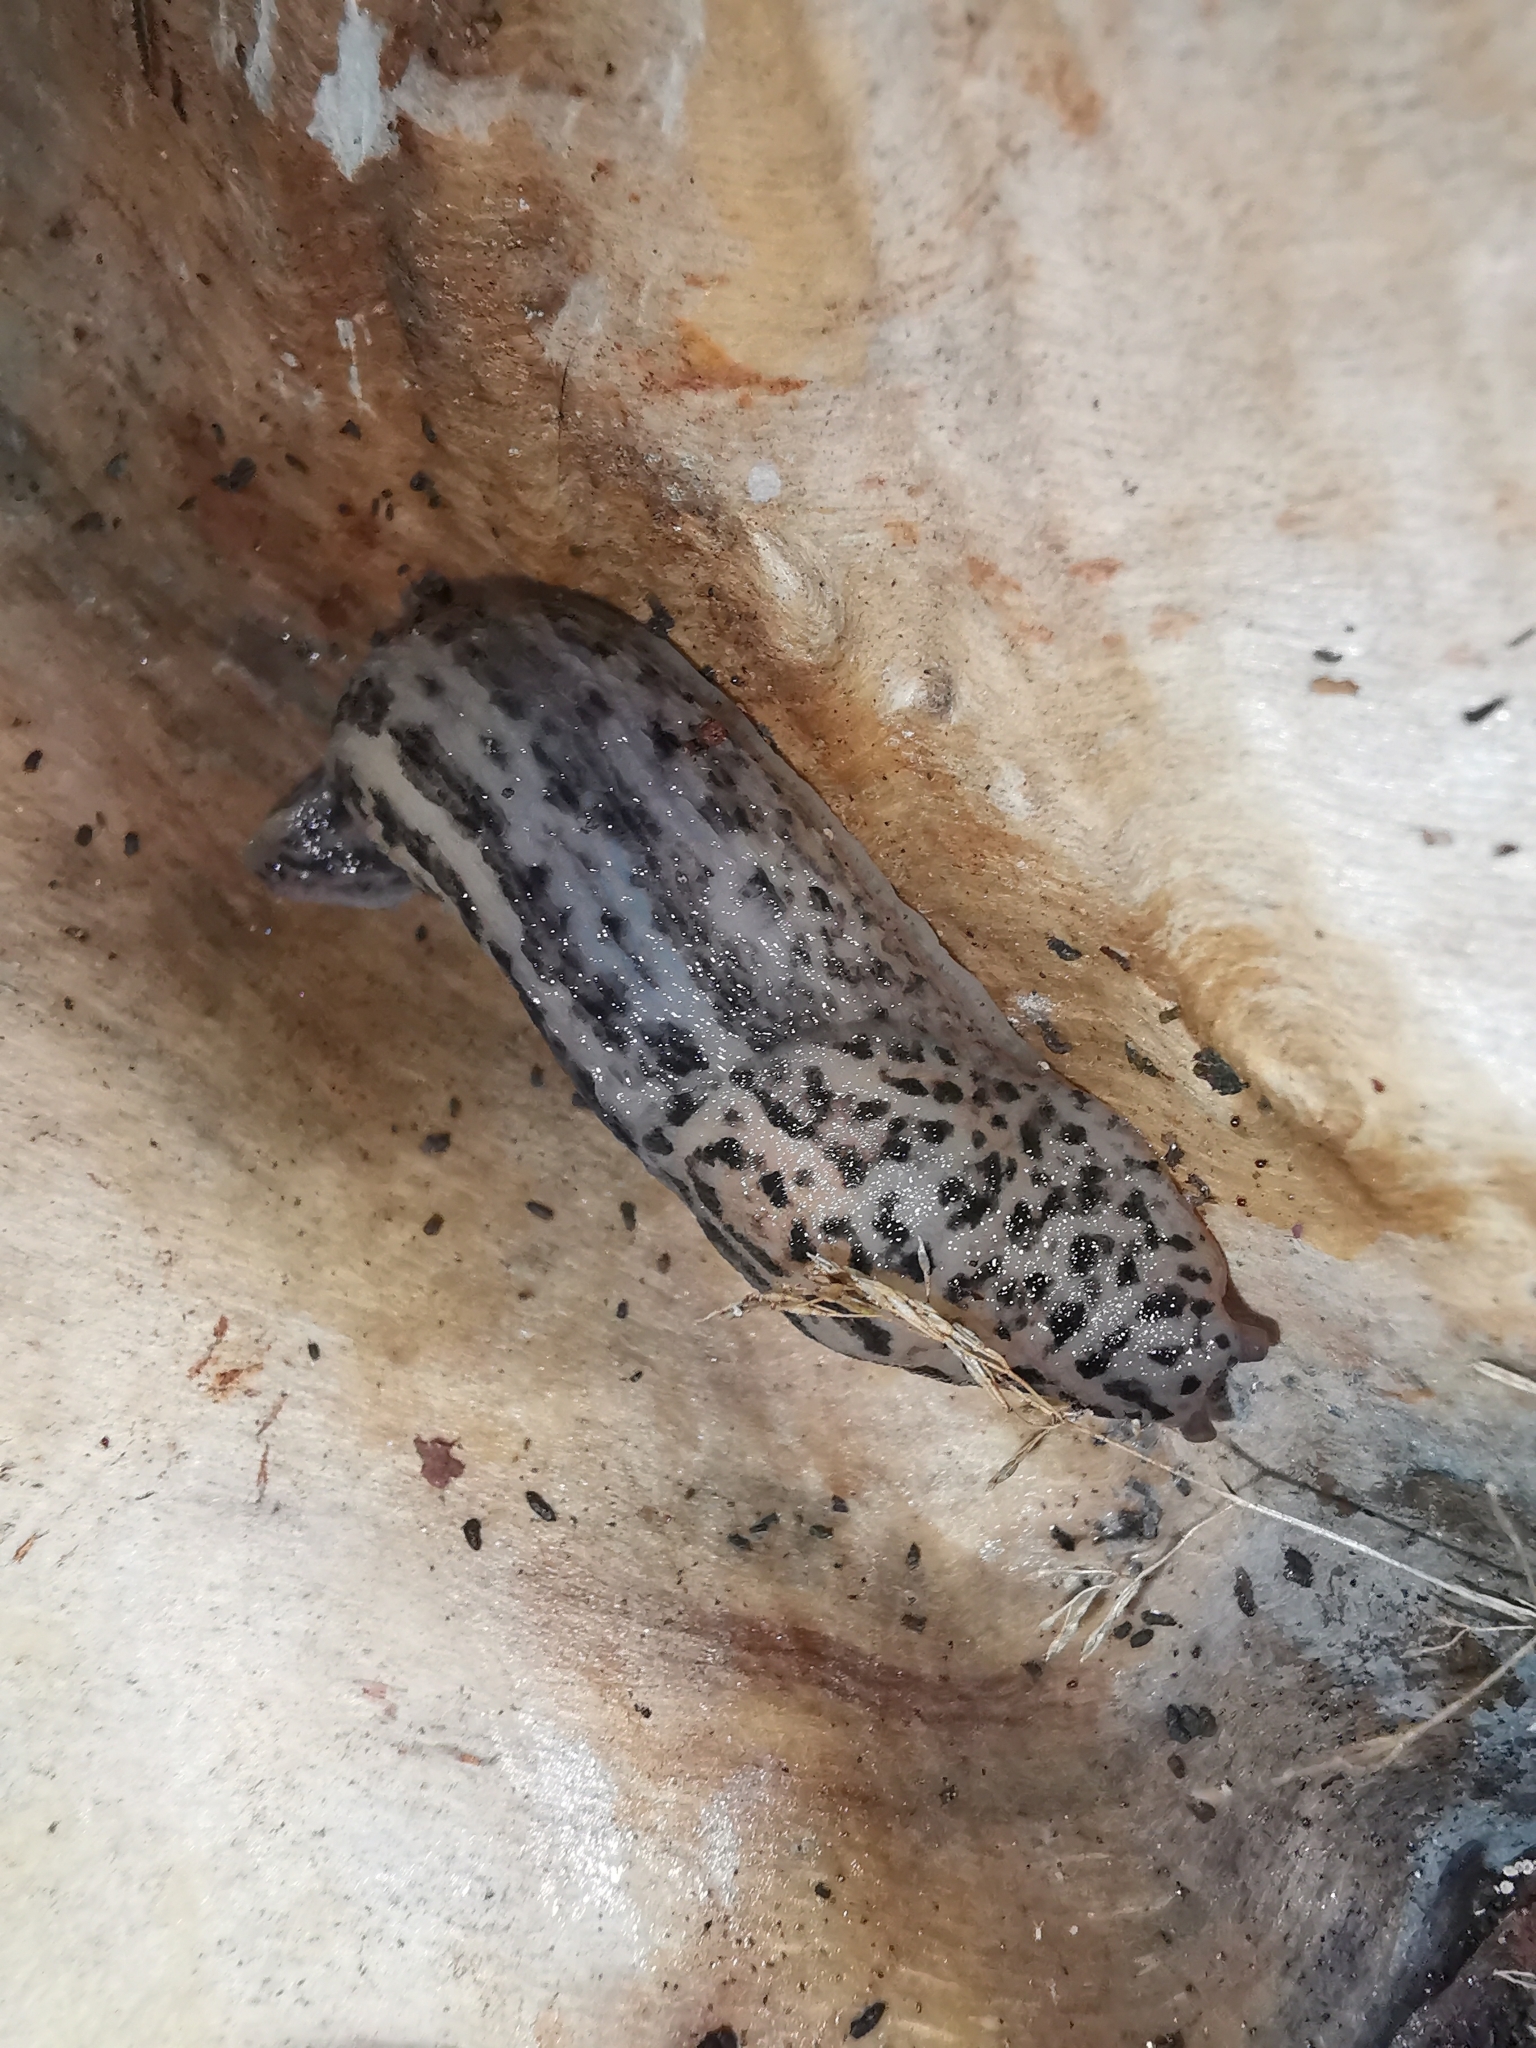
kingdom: Animalia
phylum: Mollusca
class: Gastropoda
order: Stylommatophora
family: Limacidae
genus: Limax
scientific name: Limax maximus
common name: Great grey slug
